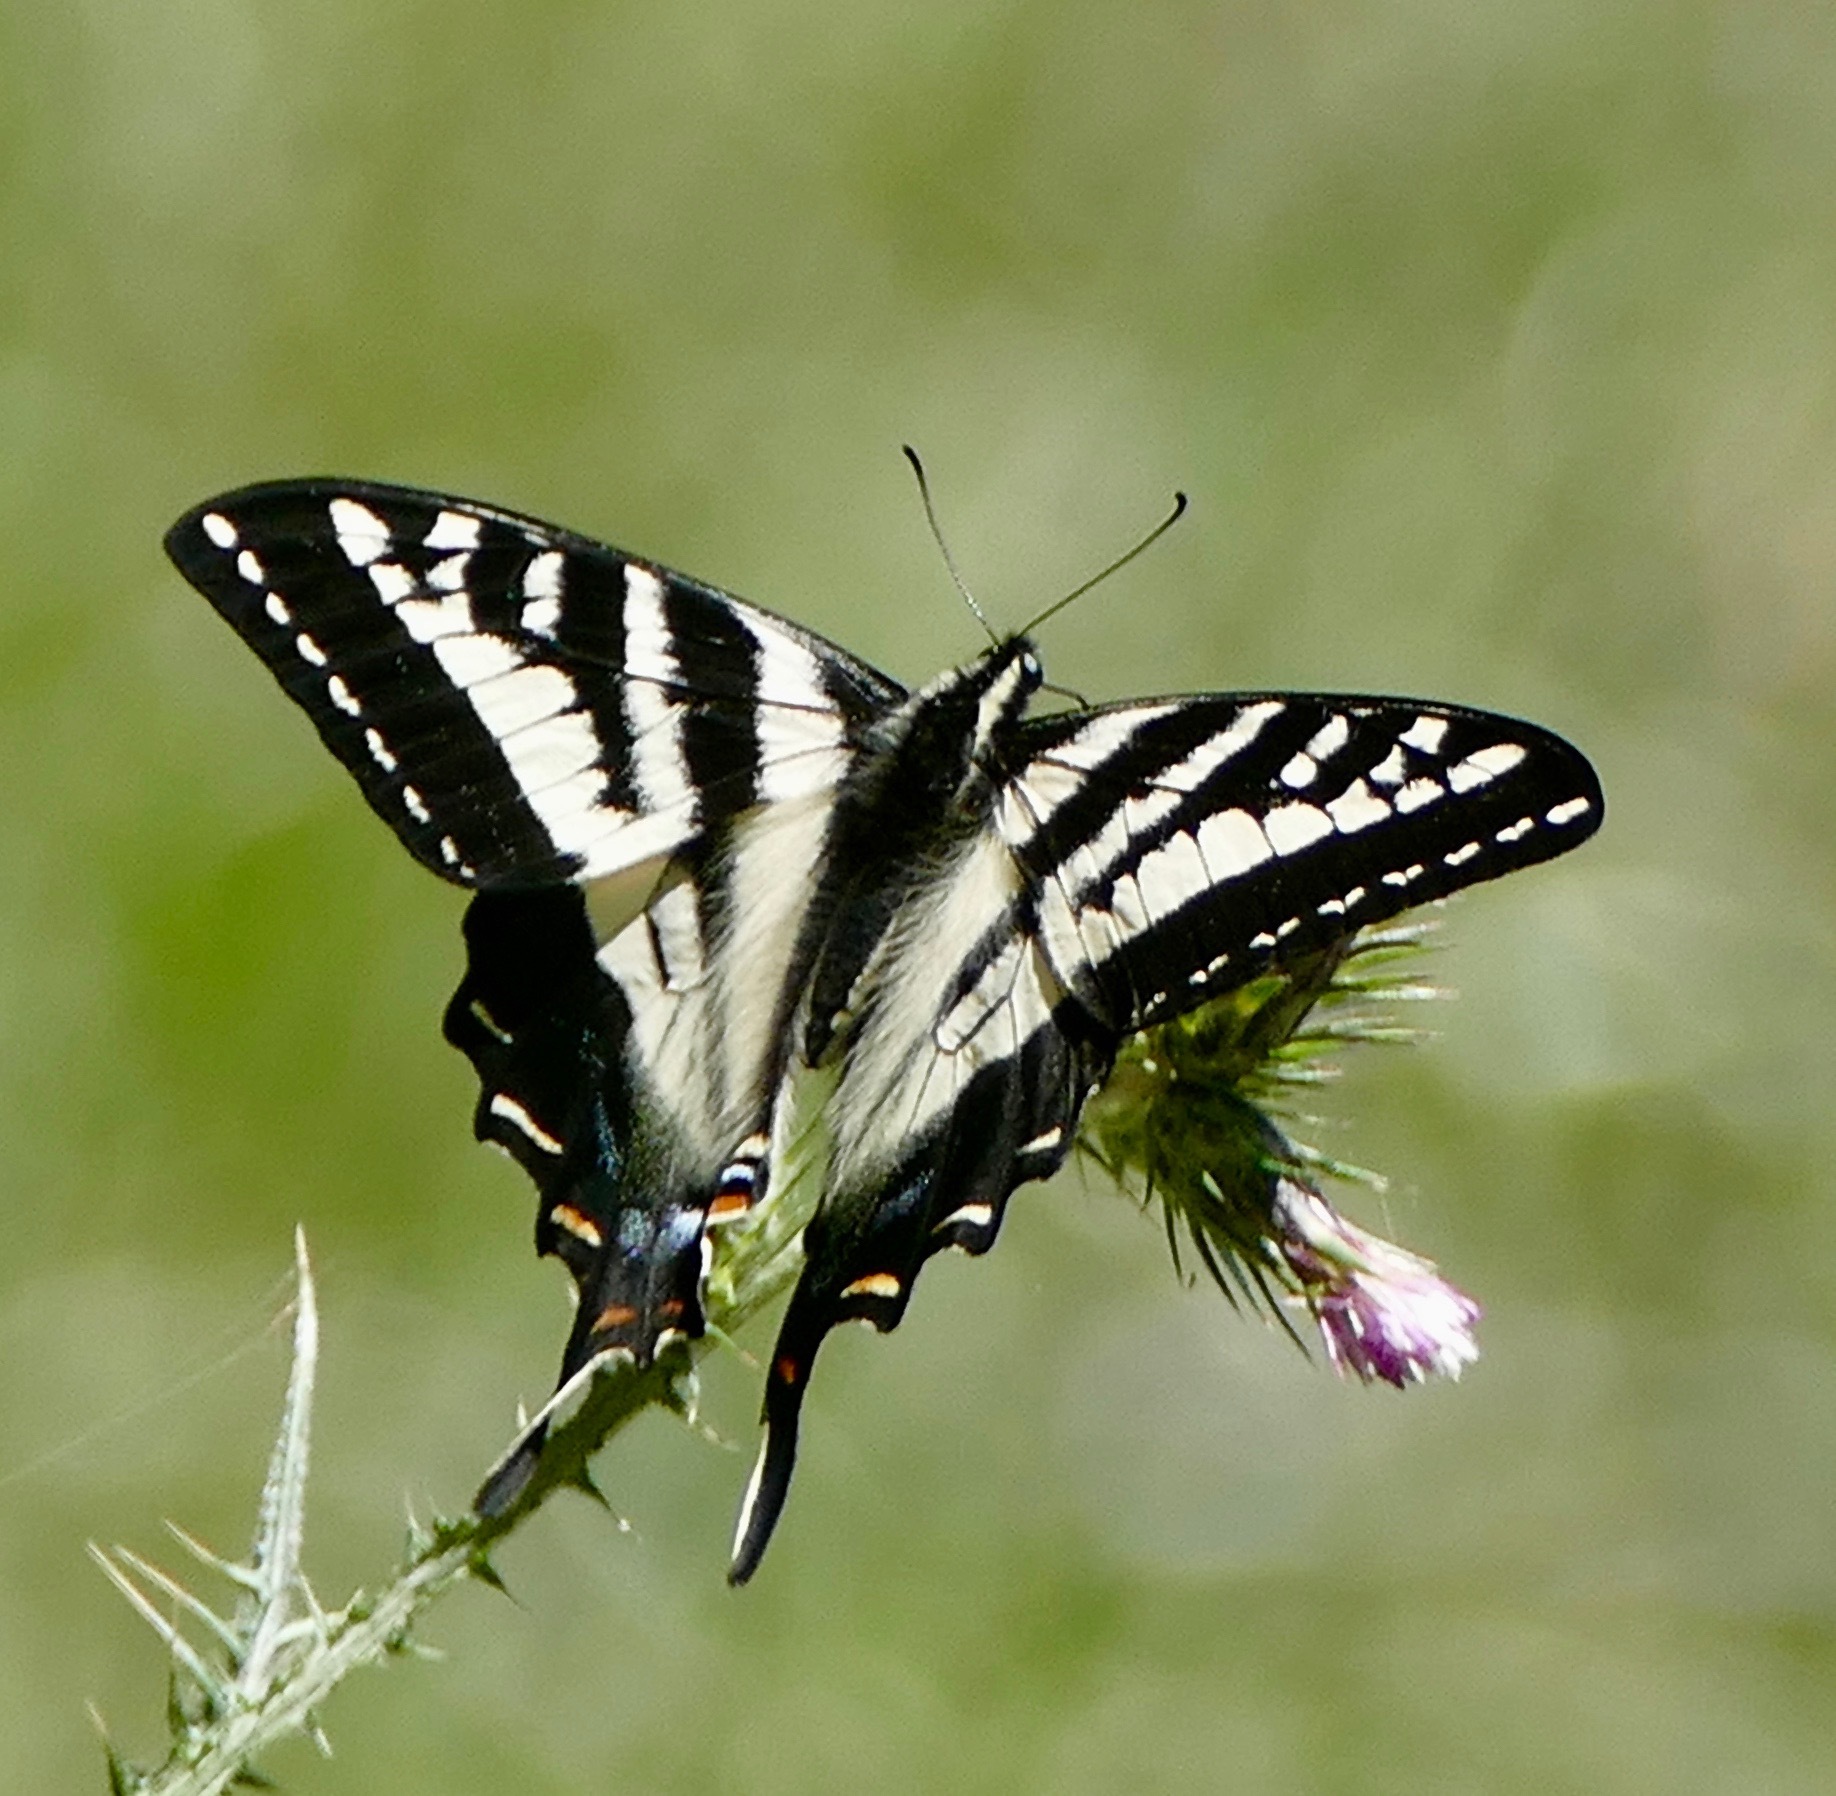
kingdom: Animalia
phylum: Arthropoda
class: Insecta
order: Lepidoptera
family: Papilionidae
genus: Papilio
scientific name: Papilio eurymedon
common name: Pale tiger swallowtail
